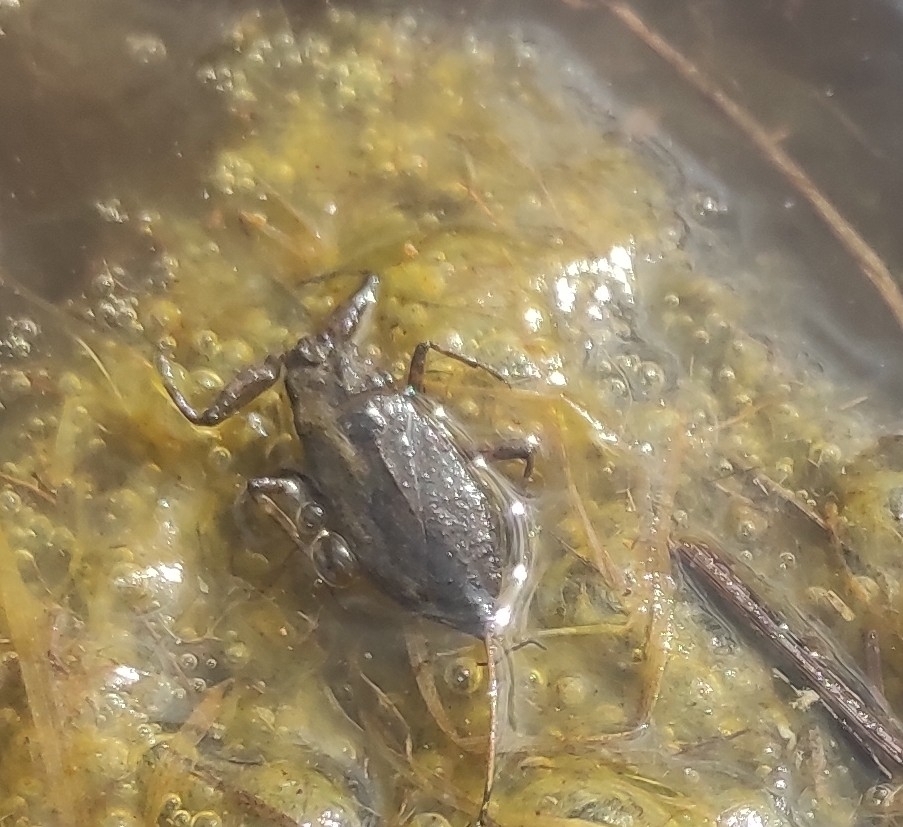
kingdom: Animalia
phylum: Arthropoda
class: Insecta
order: Hemiptera
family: Nepidae
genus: Nepa
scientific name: Nepa cinerea
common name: Water scorpion
